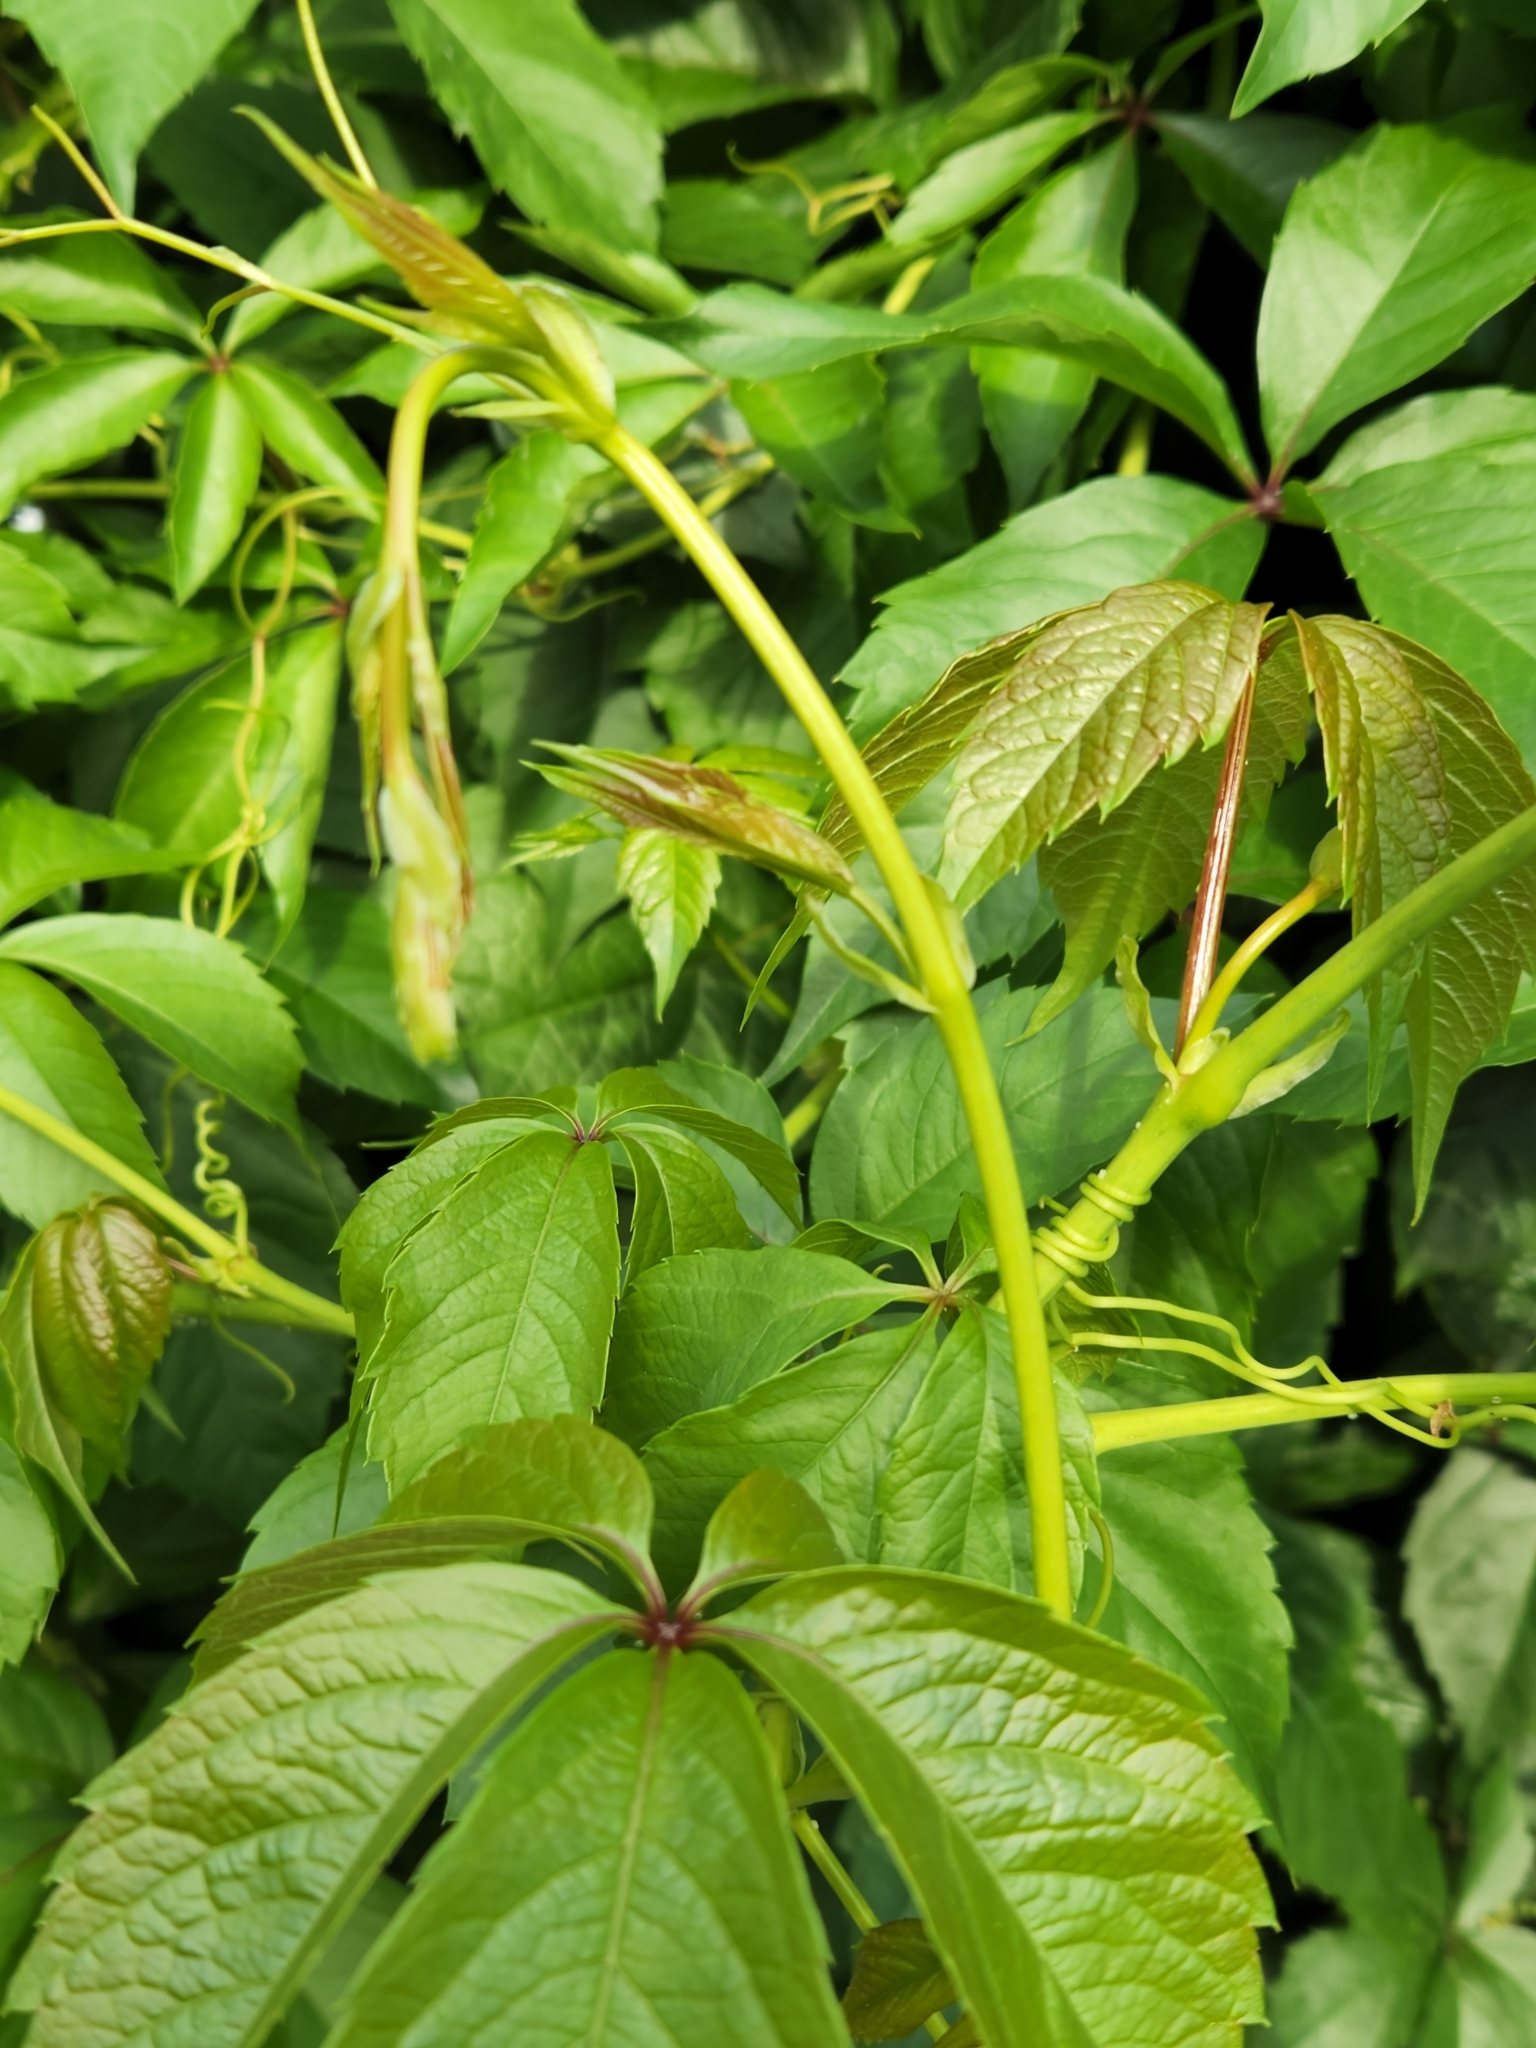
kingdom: Plantae
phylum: Tracheophyta
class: Magnoliopsida
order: Vitales
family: Vitaceae
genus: Parthenocissus
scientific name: Parthenocissus inserta
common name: False virginia-creeper
